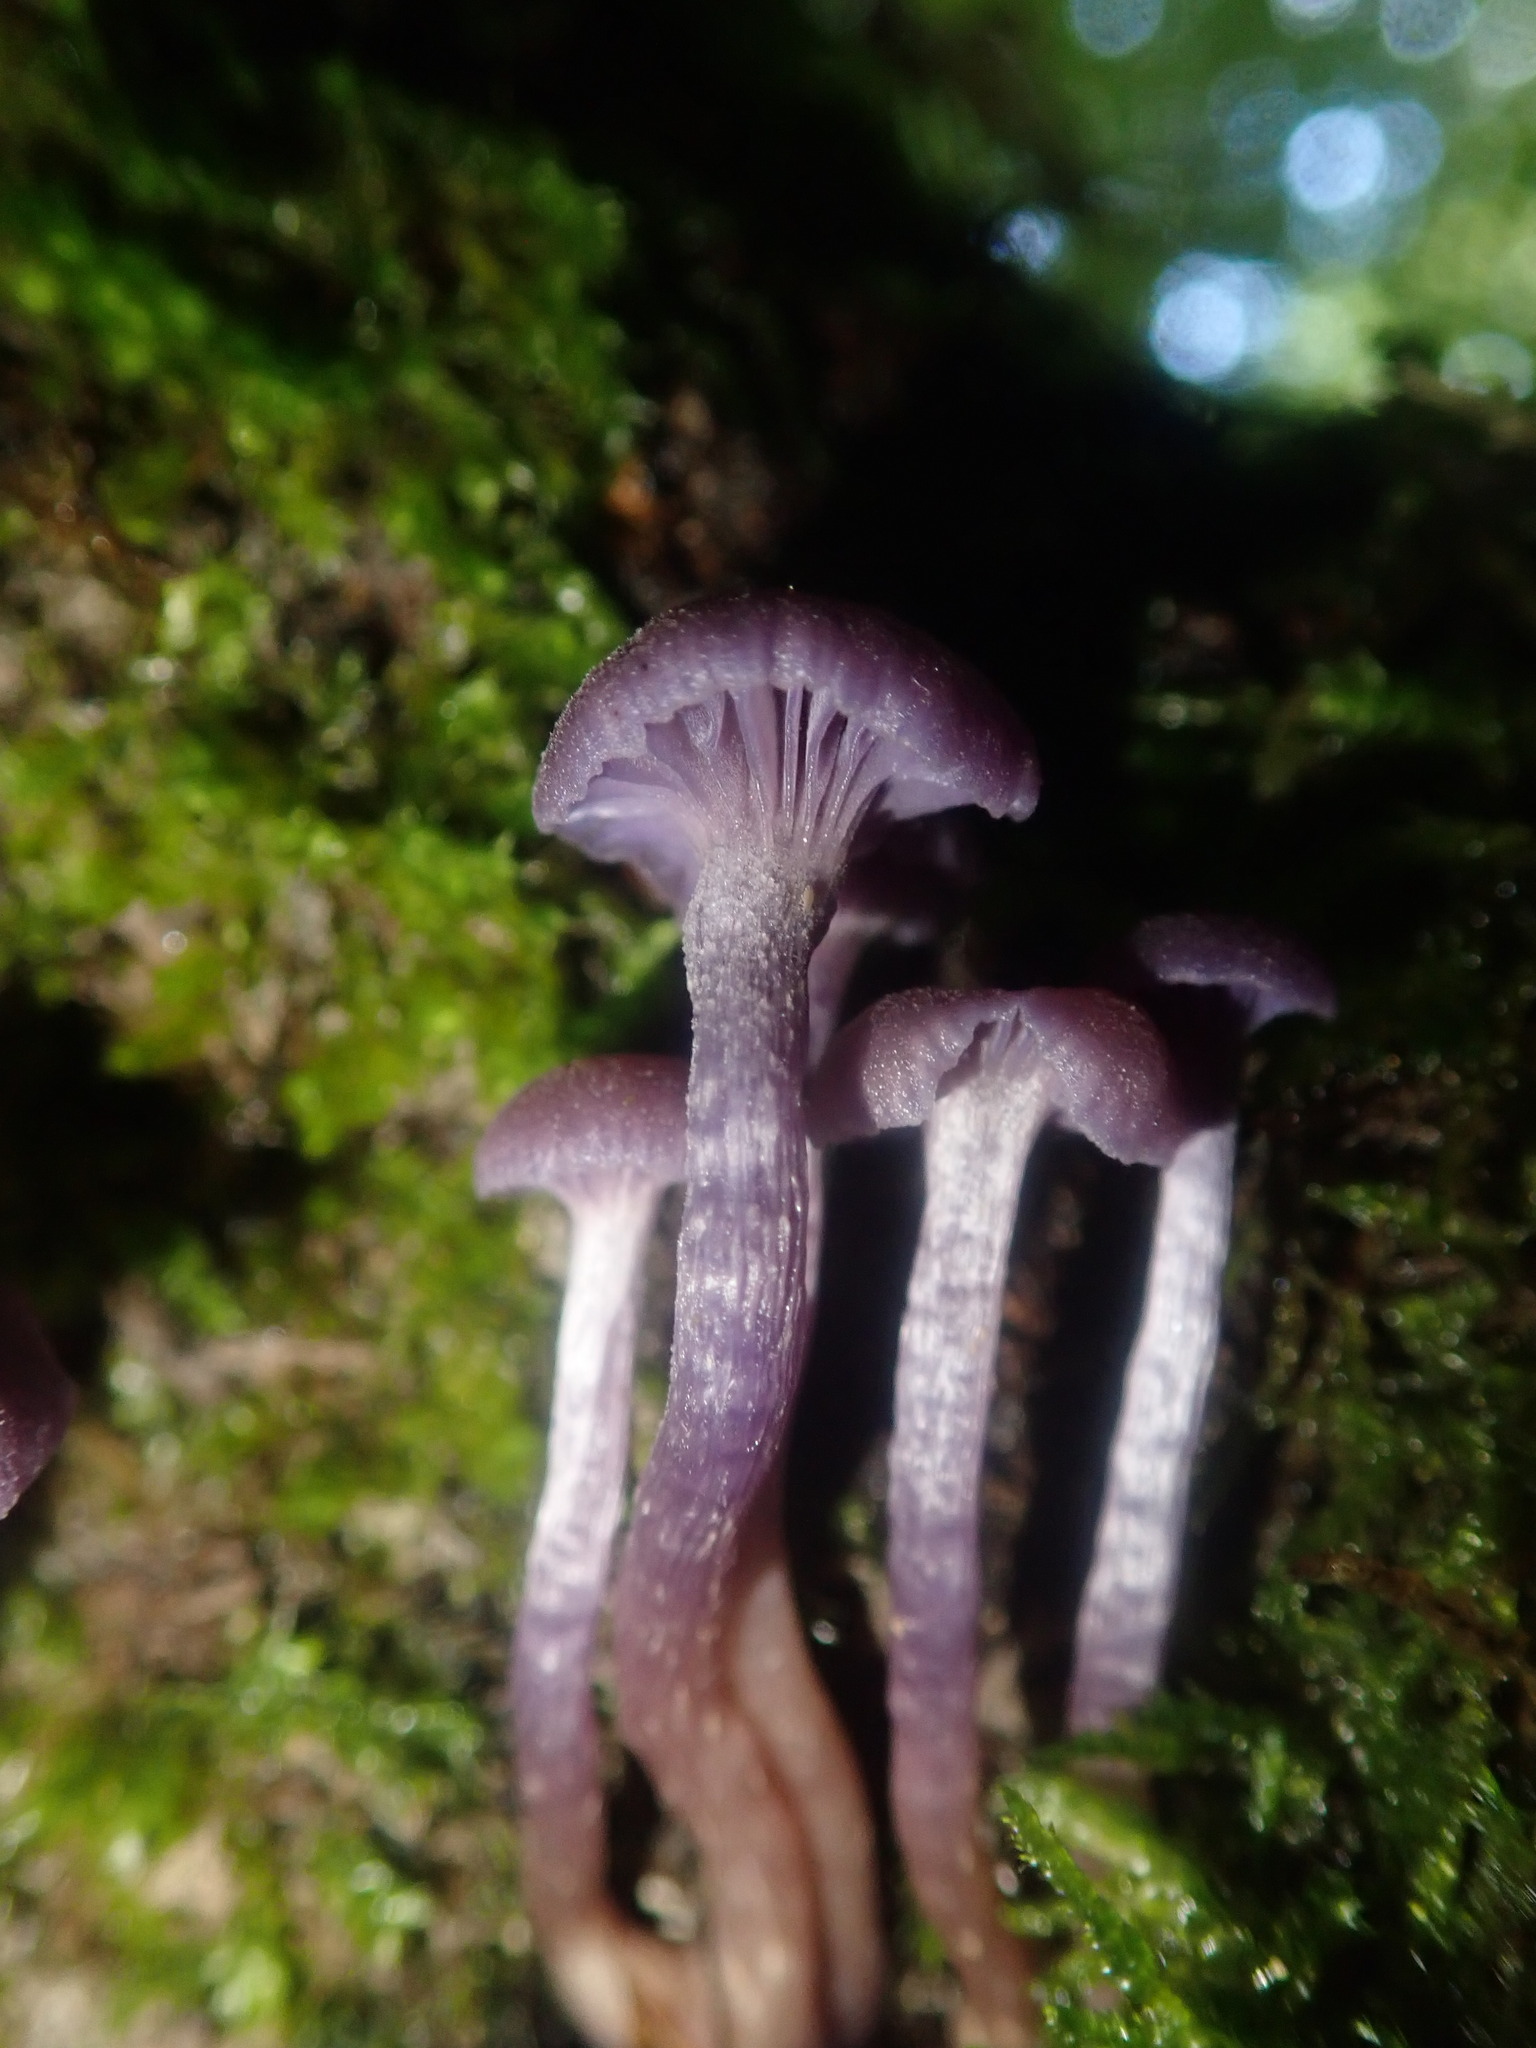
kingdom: Fungi
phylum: Basidiomycota
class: Agaricomycetes
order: Agaricales
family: Hydnangiaceae
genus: Laccaria
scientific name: Laccaria amethystina
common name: Amethyst deceiver
